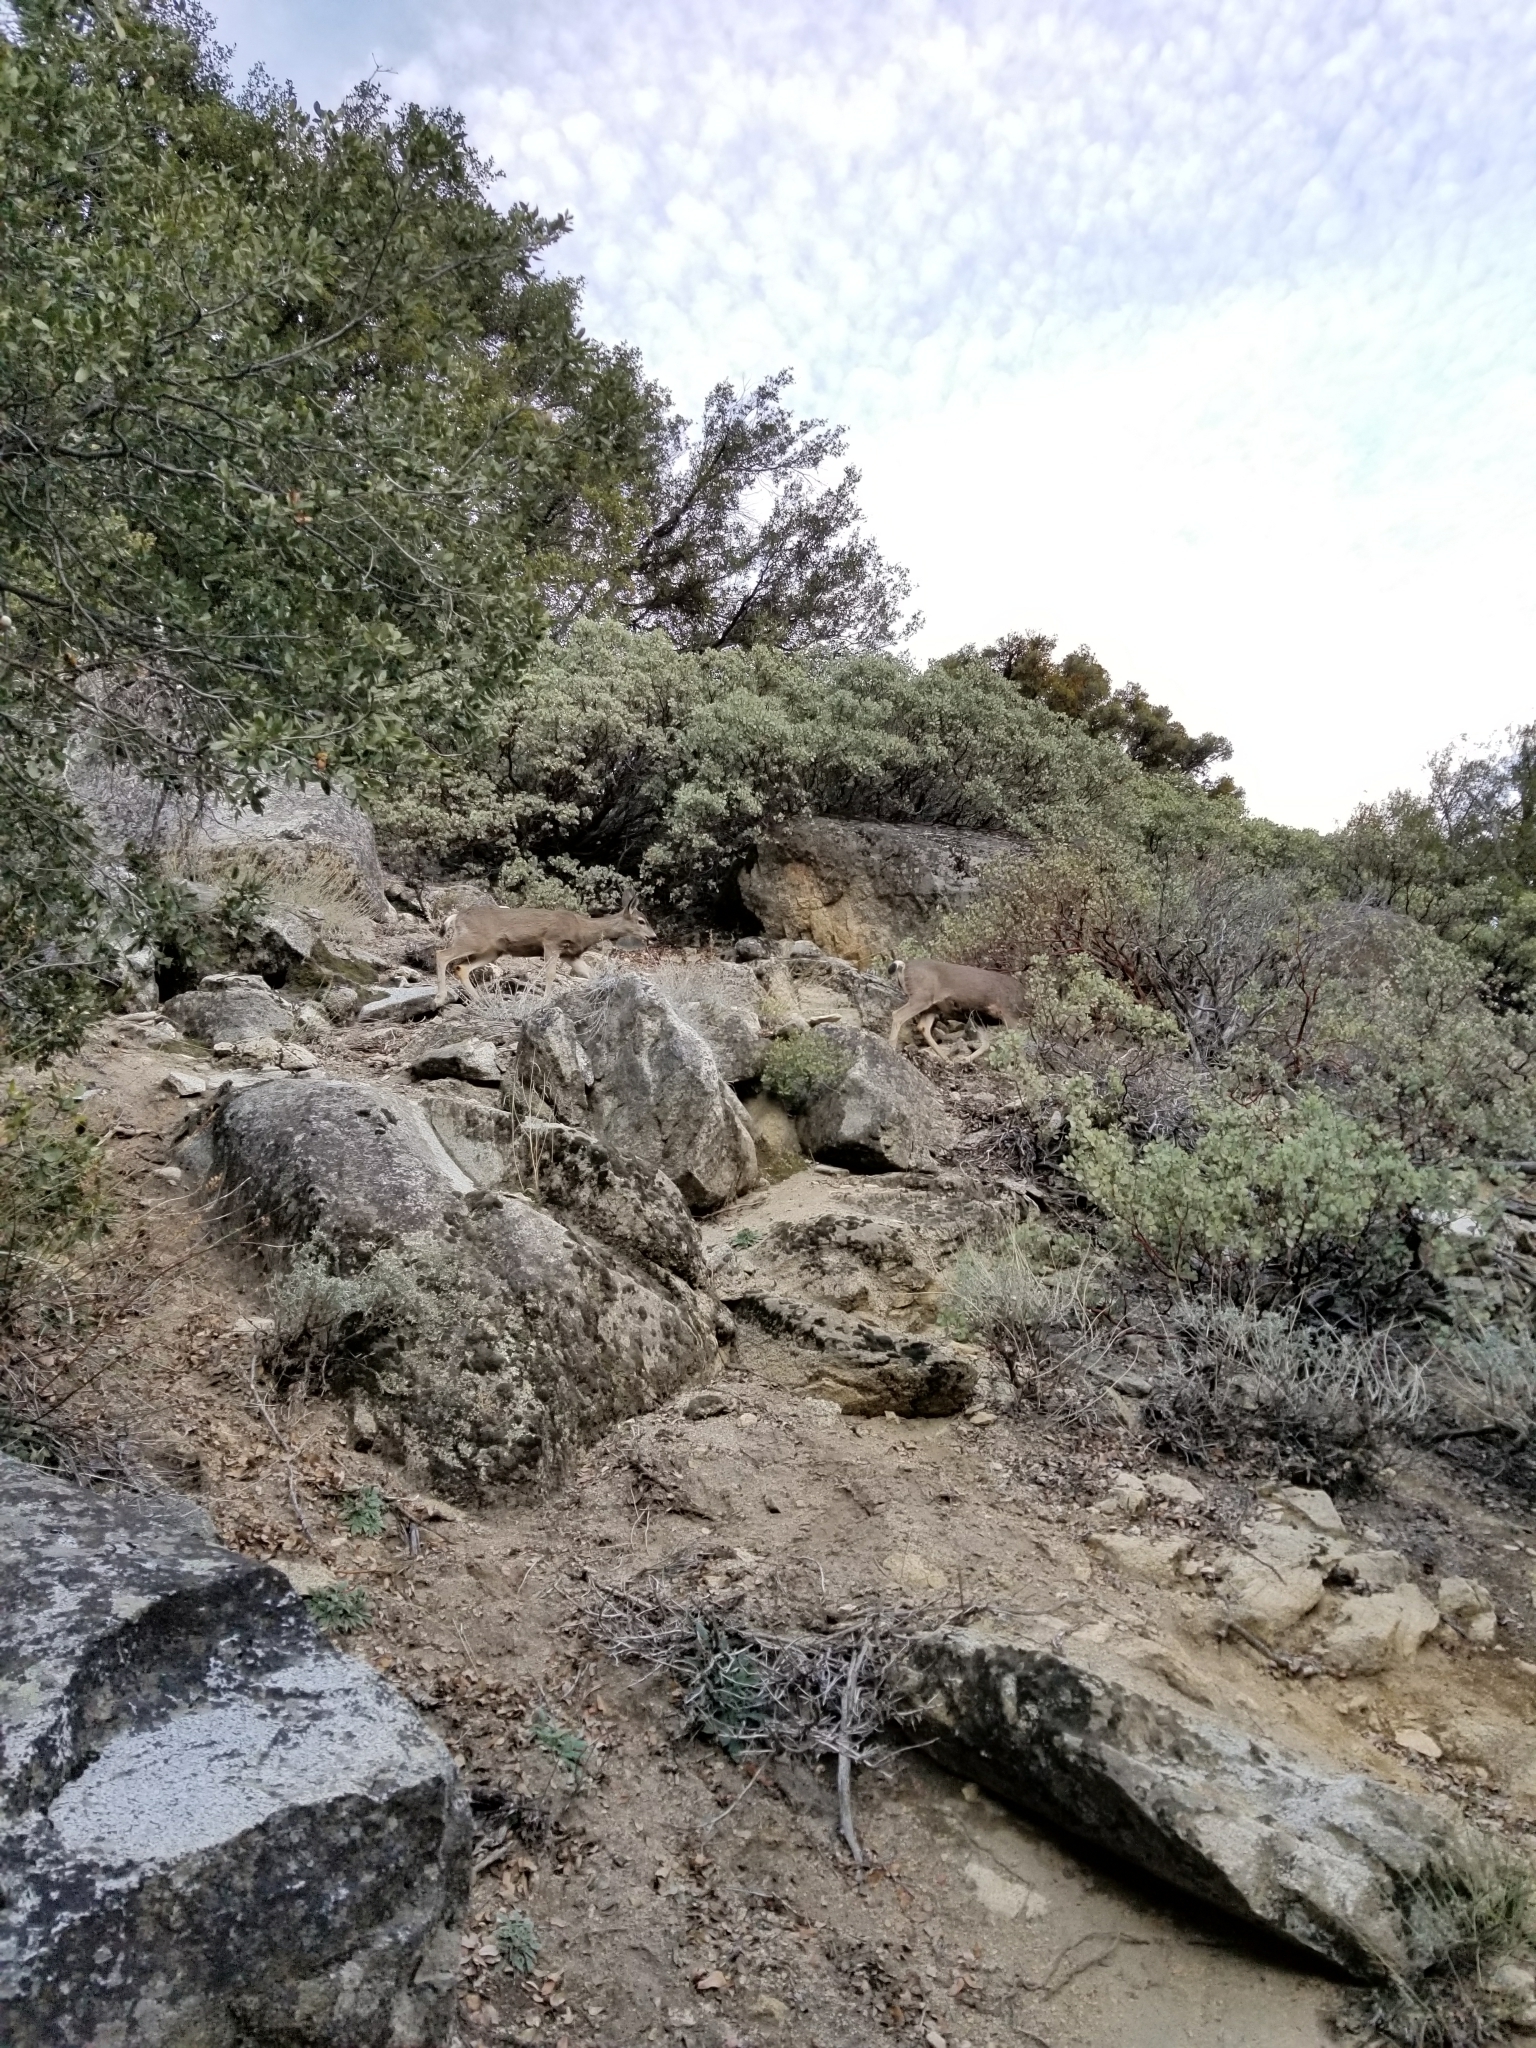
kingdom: Animalia
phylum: Chordata
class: Mammalia
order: Artiodactyla
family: Cervidae
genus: Odocoileus
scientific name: Odocoileus hemionus
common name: Mule deer
